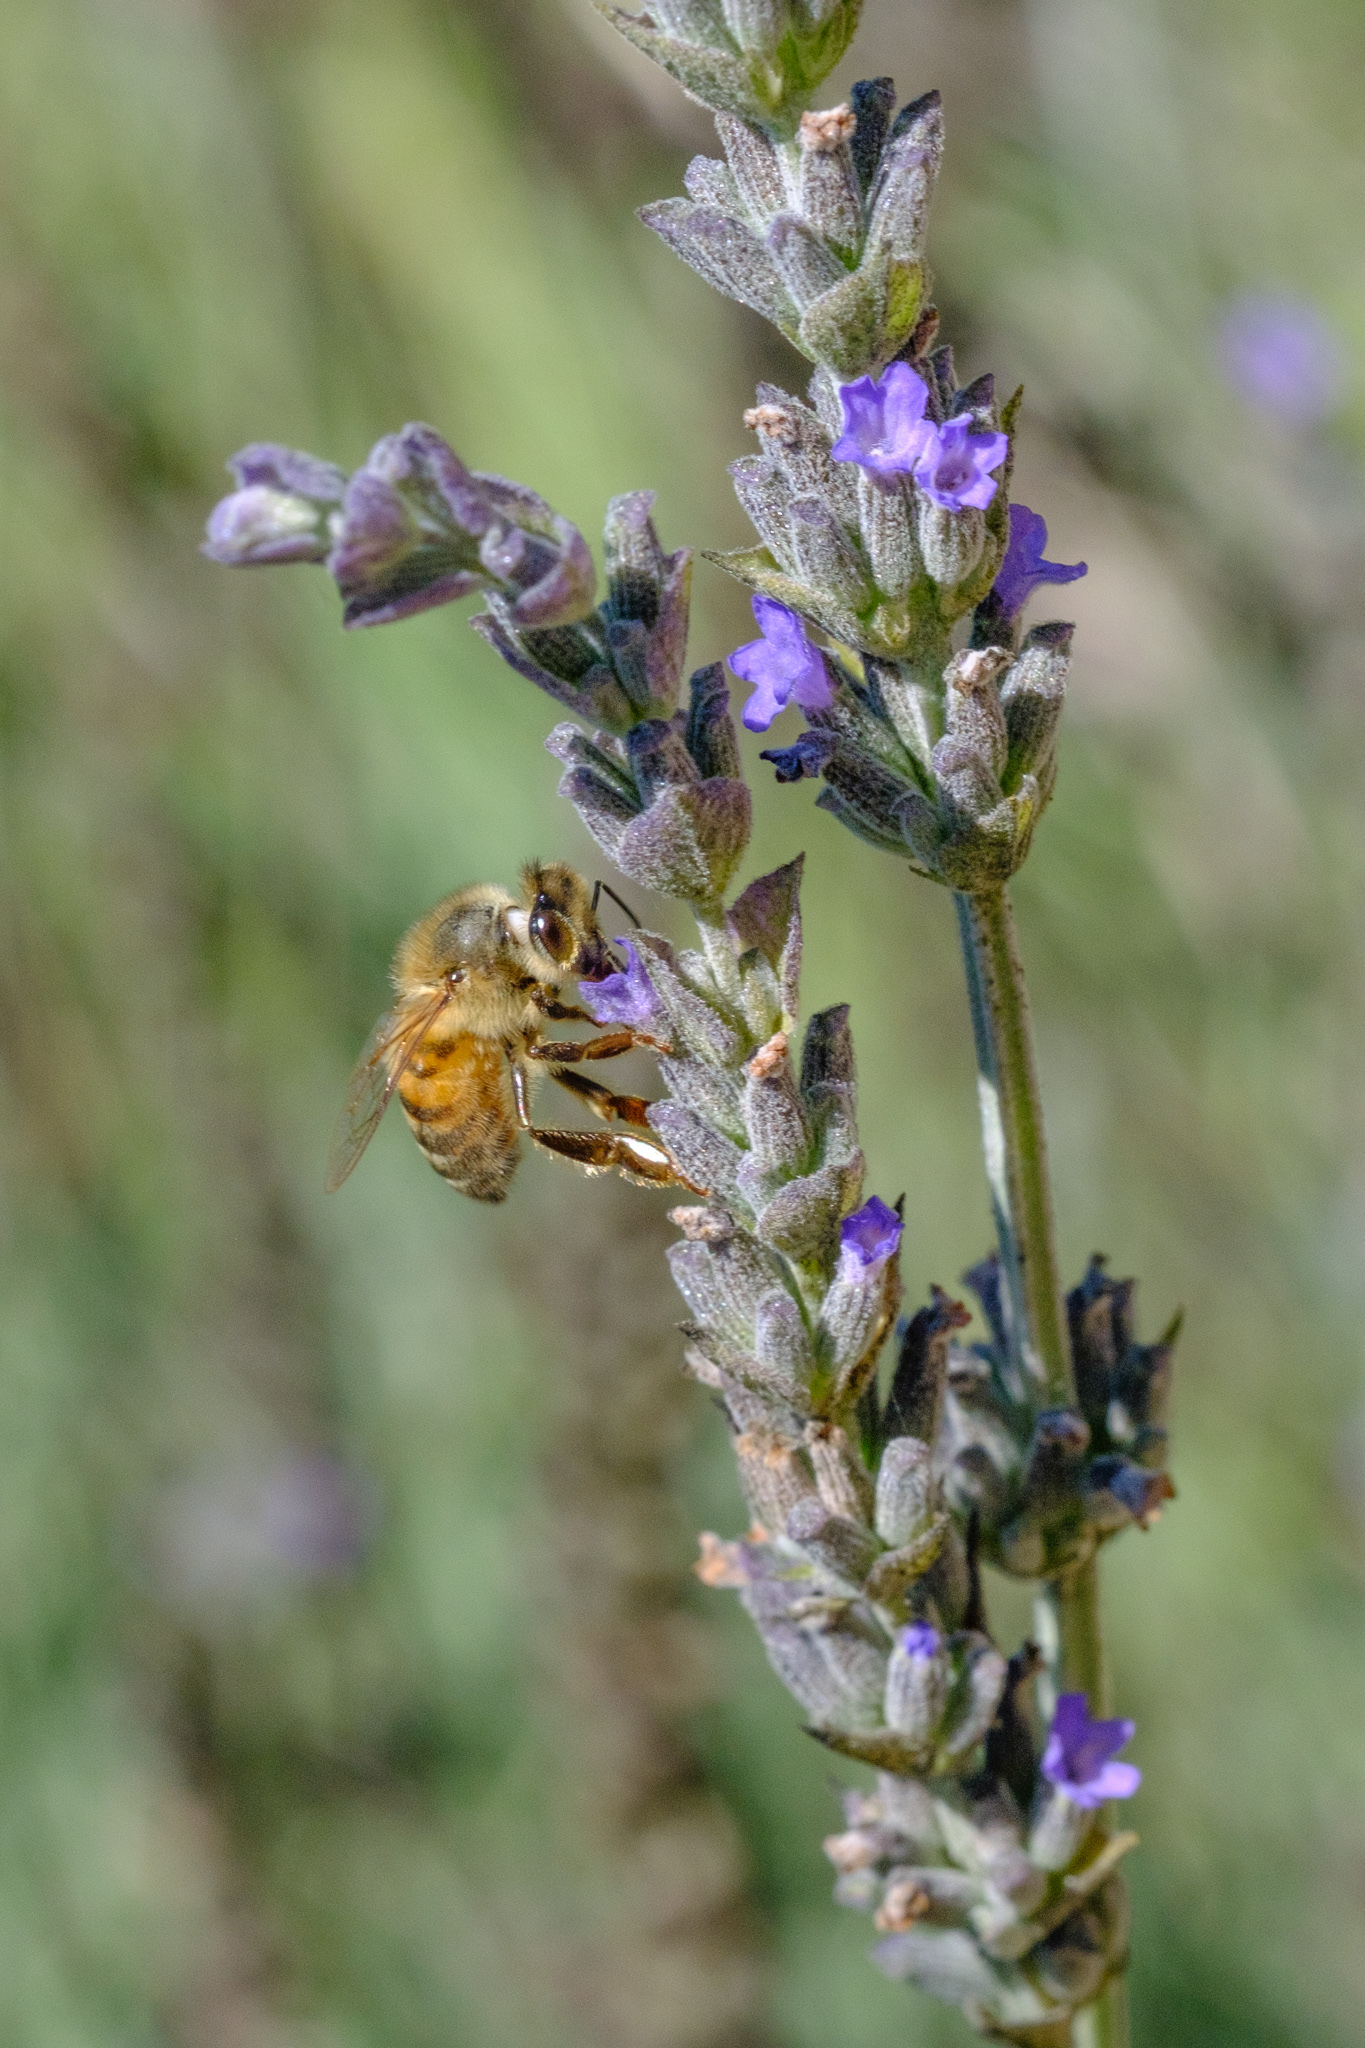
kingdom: Animalia
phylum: Arthropoda
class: Insecta
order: Hymenoptera
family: Apidae
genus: Apis
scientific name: Apis mellifera
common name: Honey bee
